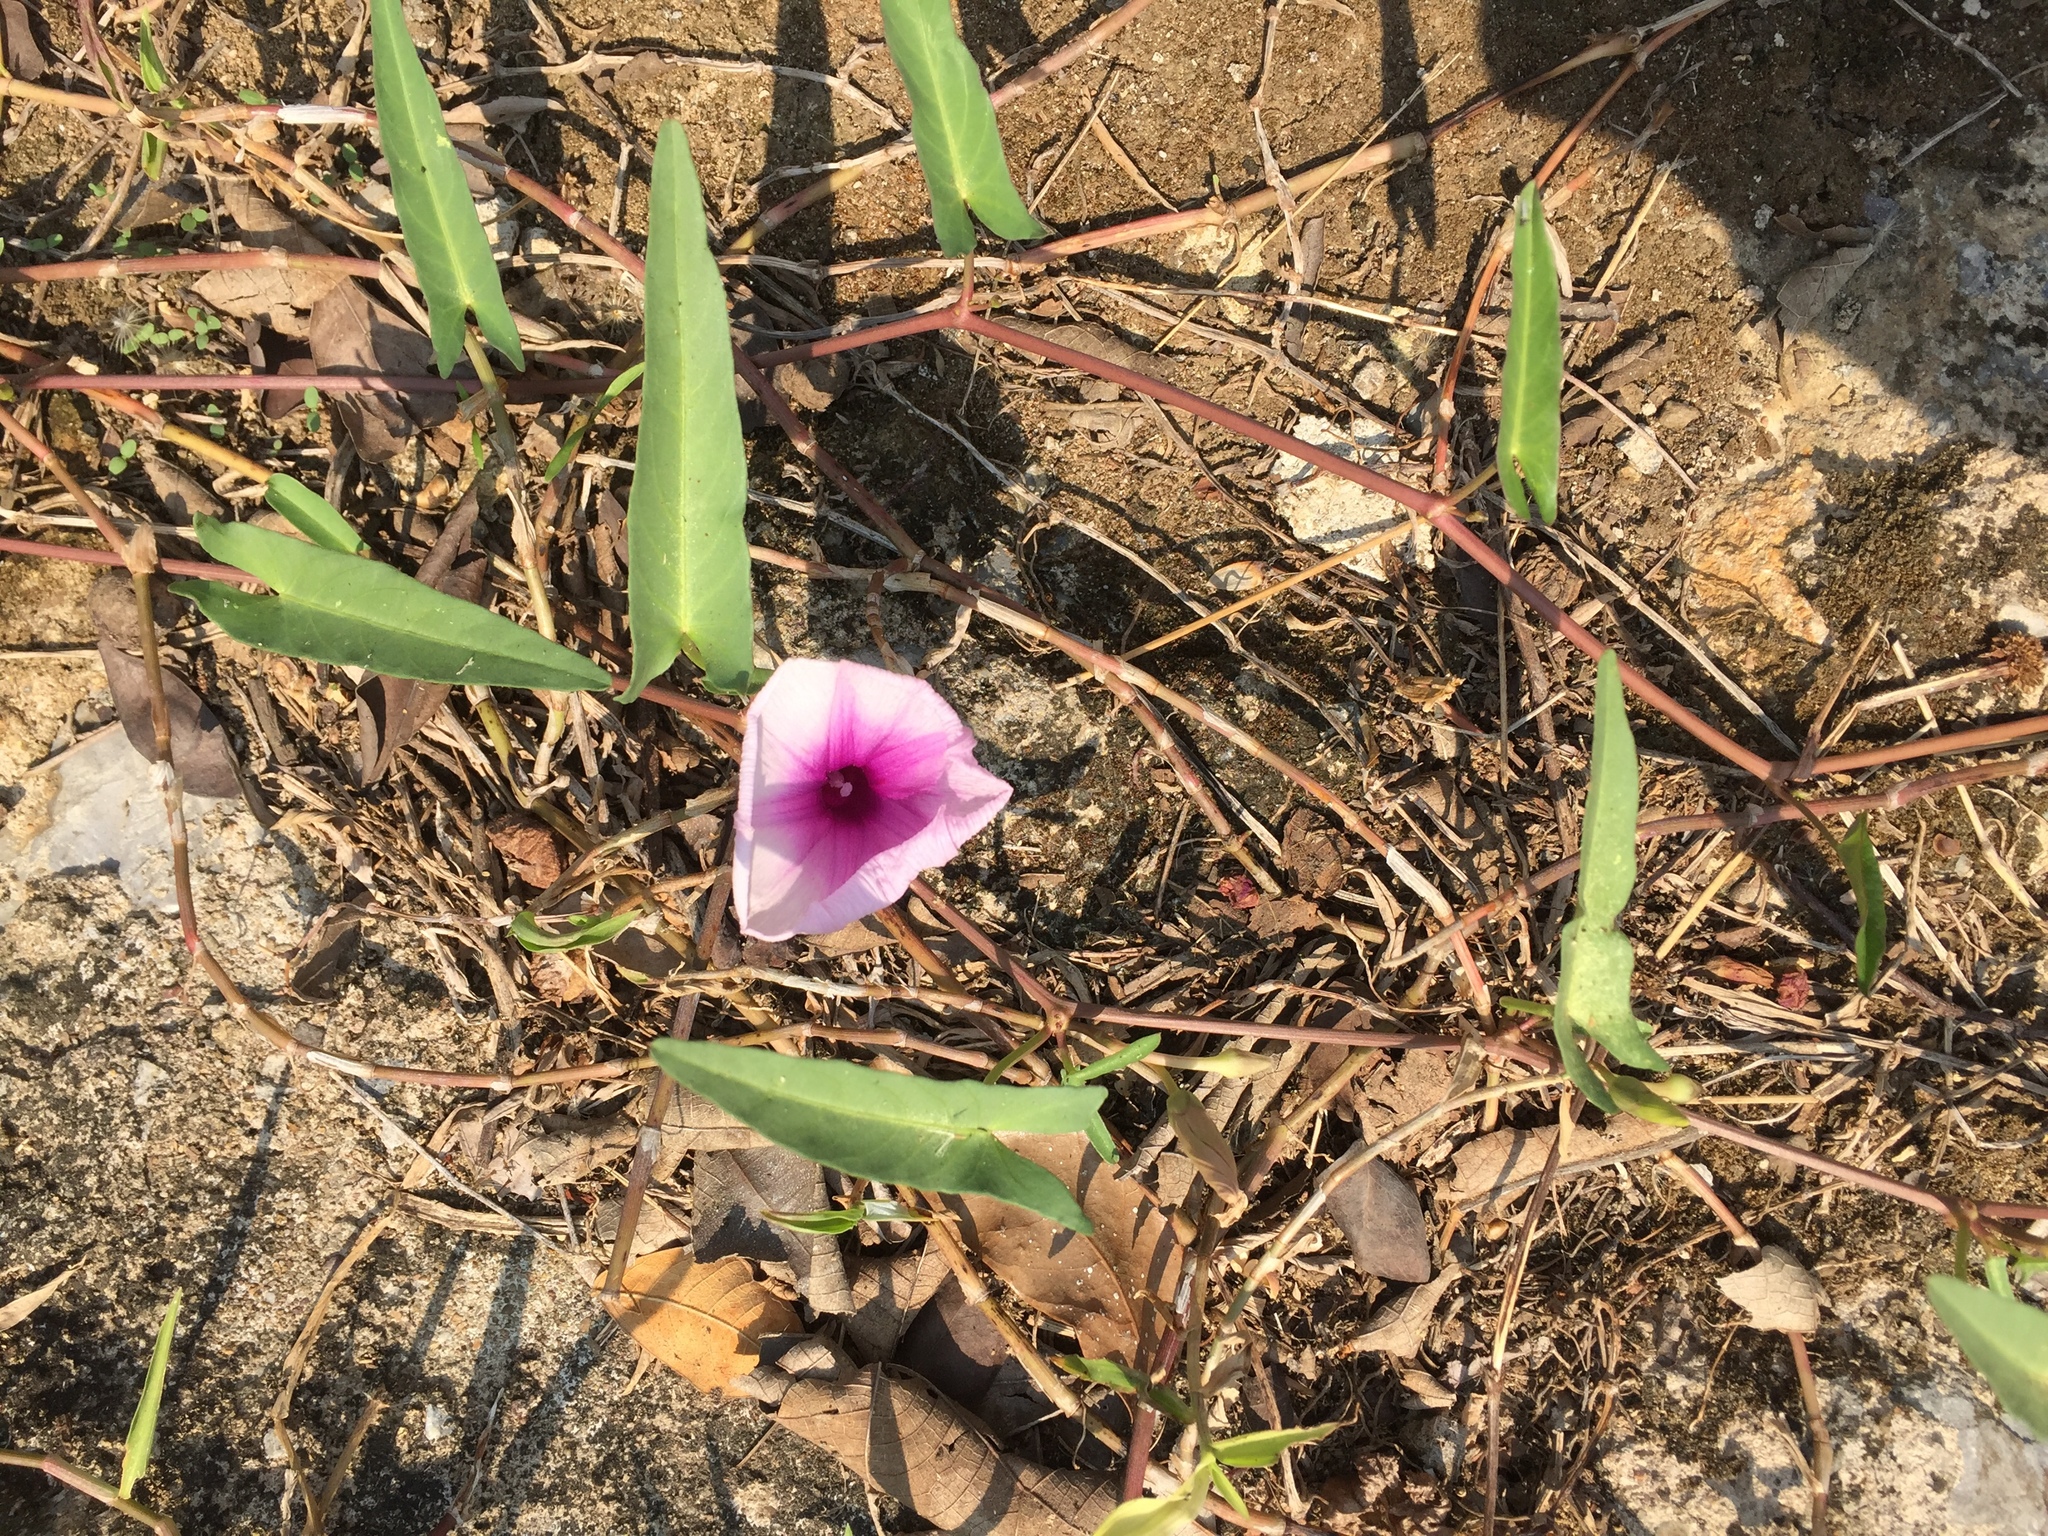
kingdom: Plantae
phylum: Tracheophyta
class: Magnoliopsida
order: Solanales
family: Convolvulaceae
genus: Ipomoea
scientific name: Ipomoea aquatica
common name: Swamp morning-glory
